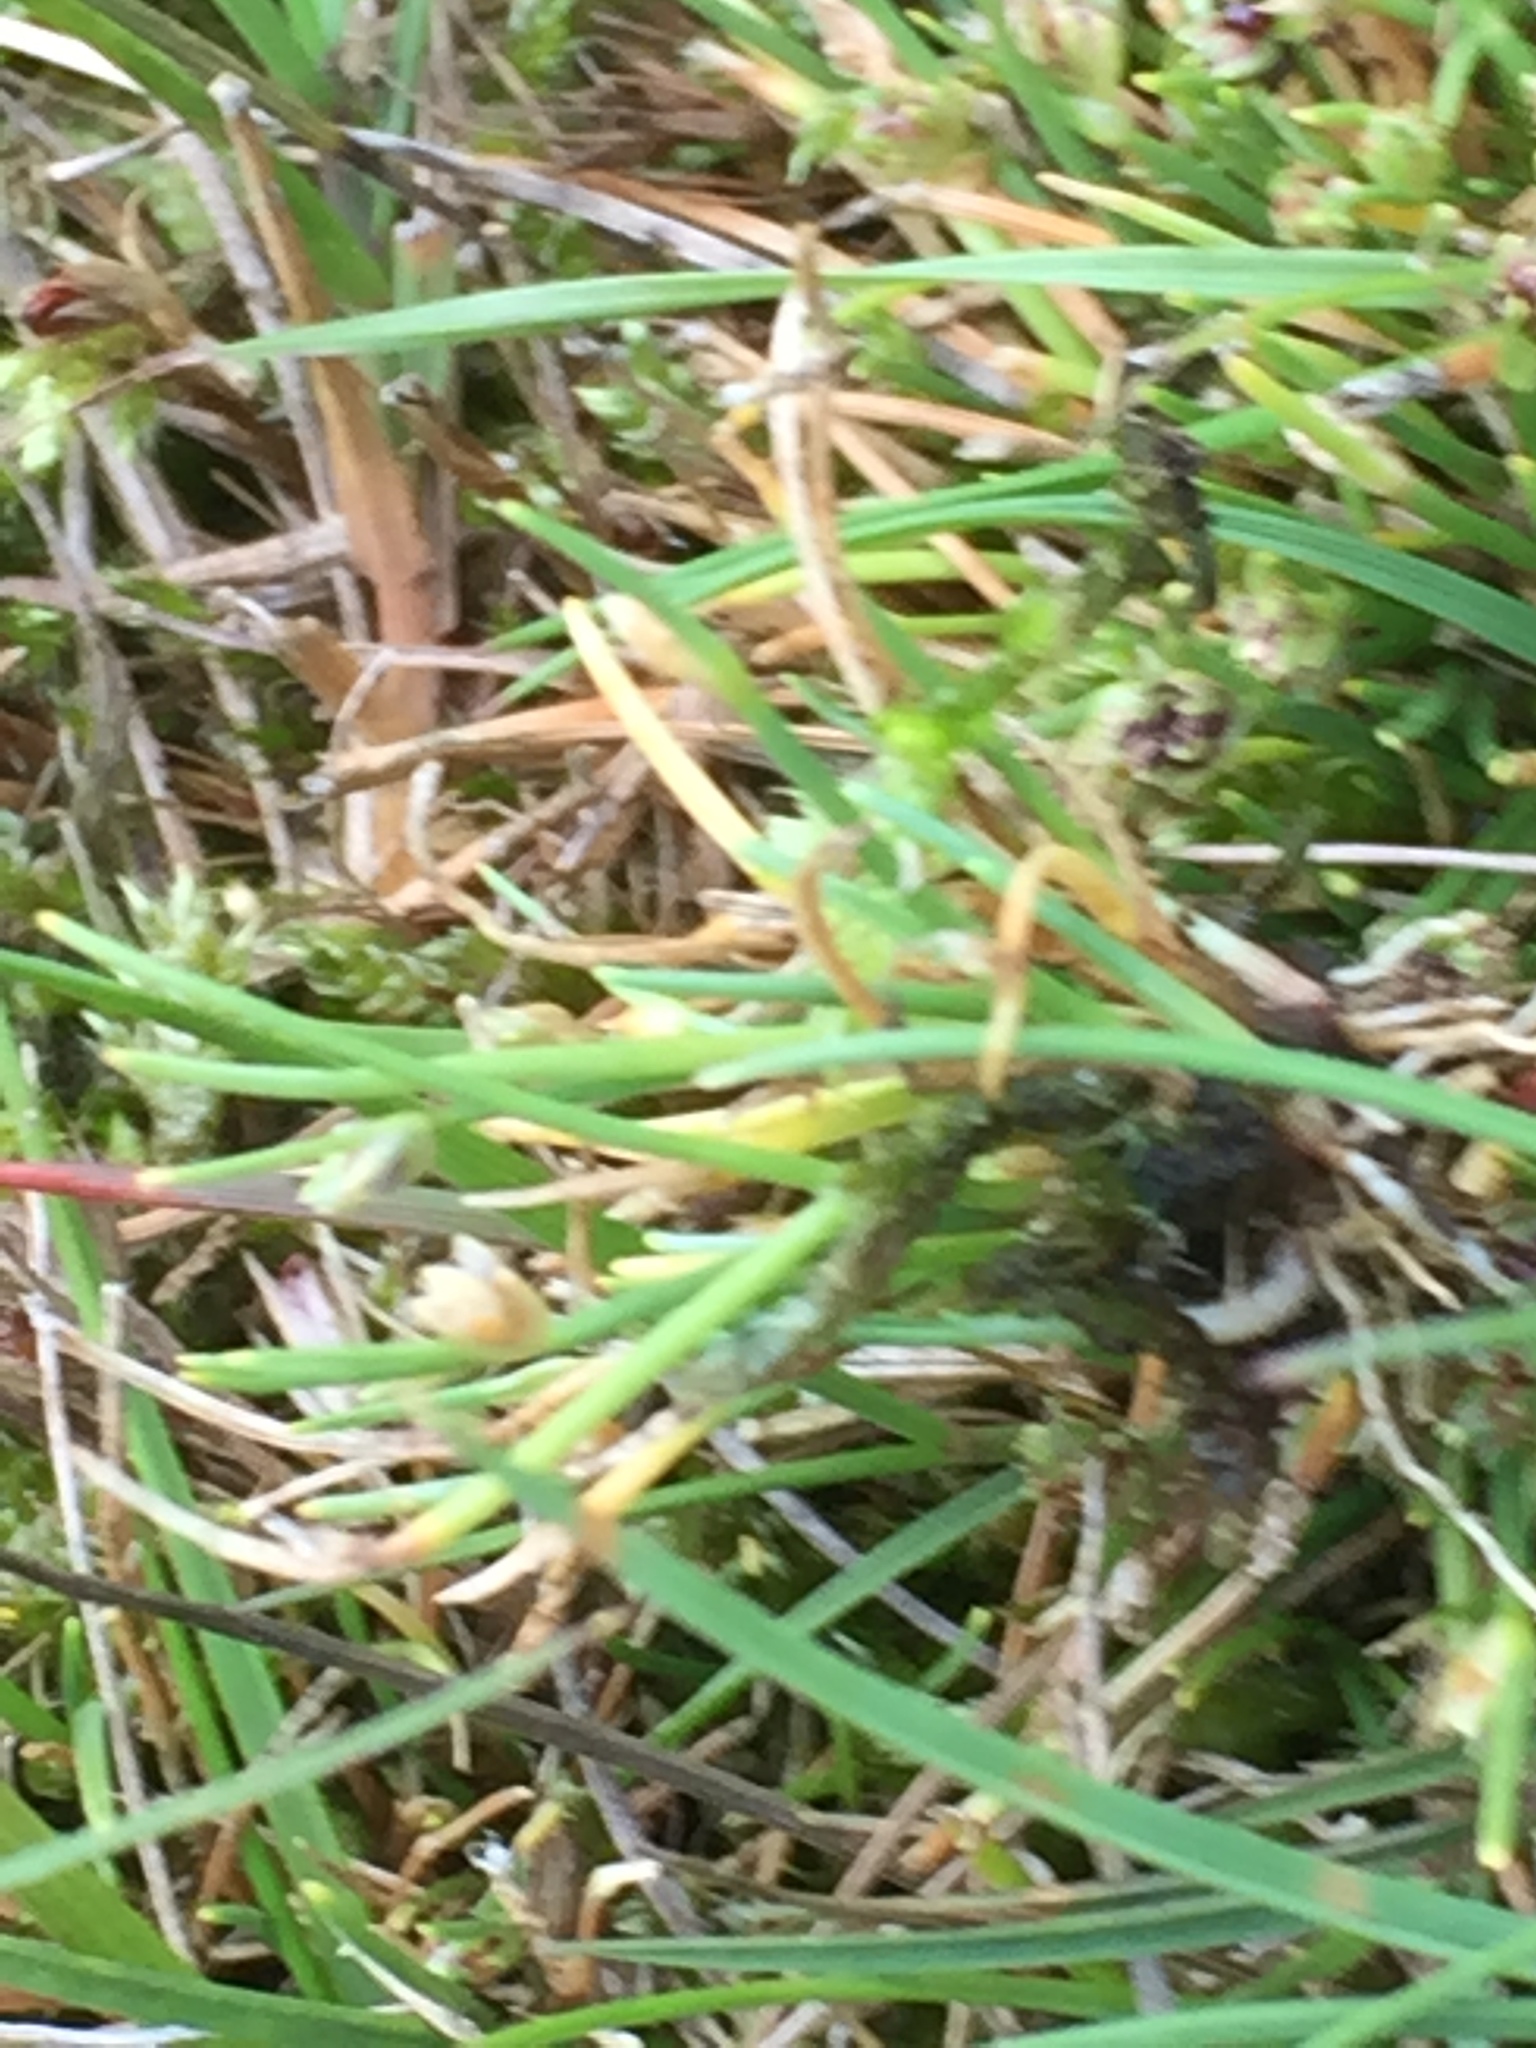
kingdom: Plantae
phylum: Tracheophyta
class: Liliopsida
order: Poales
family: Cyperaceae
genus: Isolepis
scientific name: Isolepis setacea
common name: Bristle club-rush
